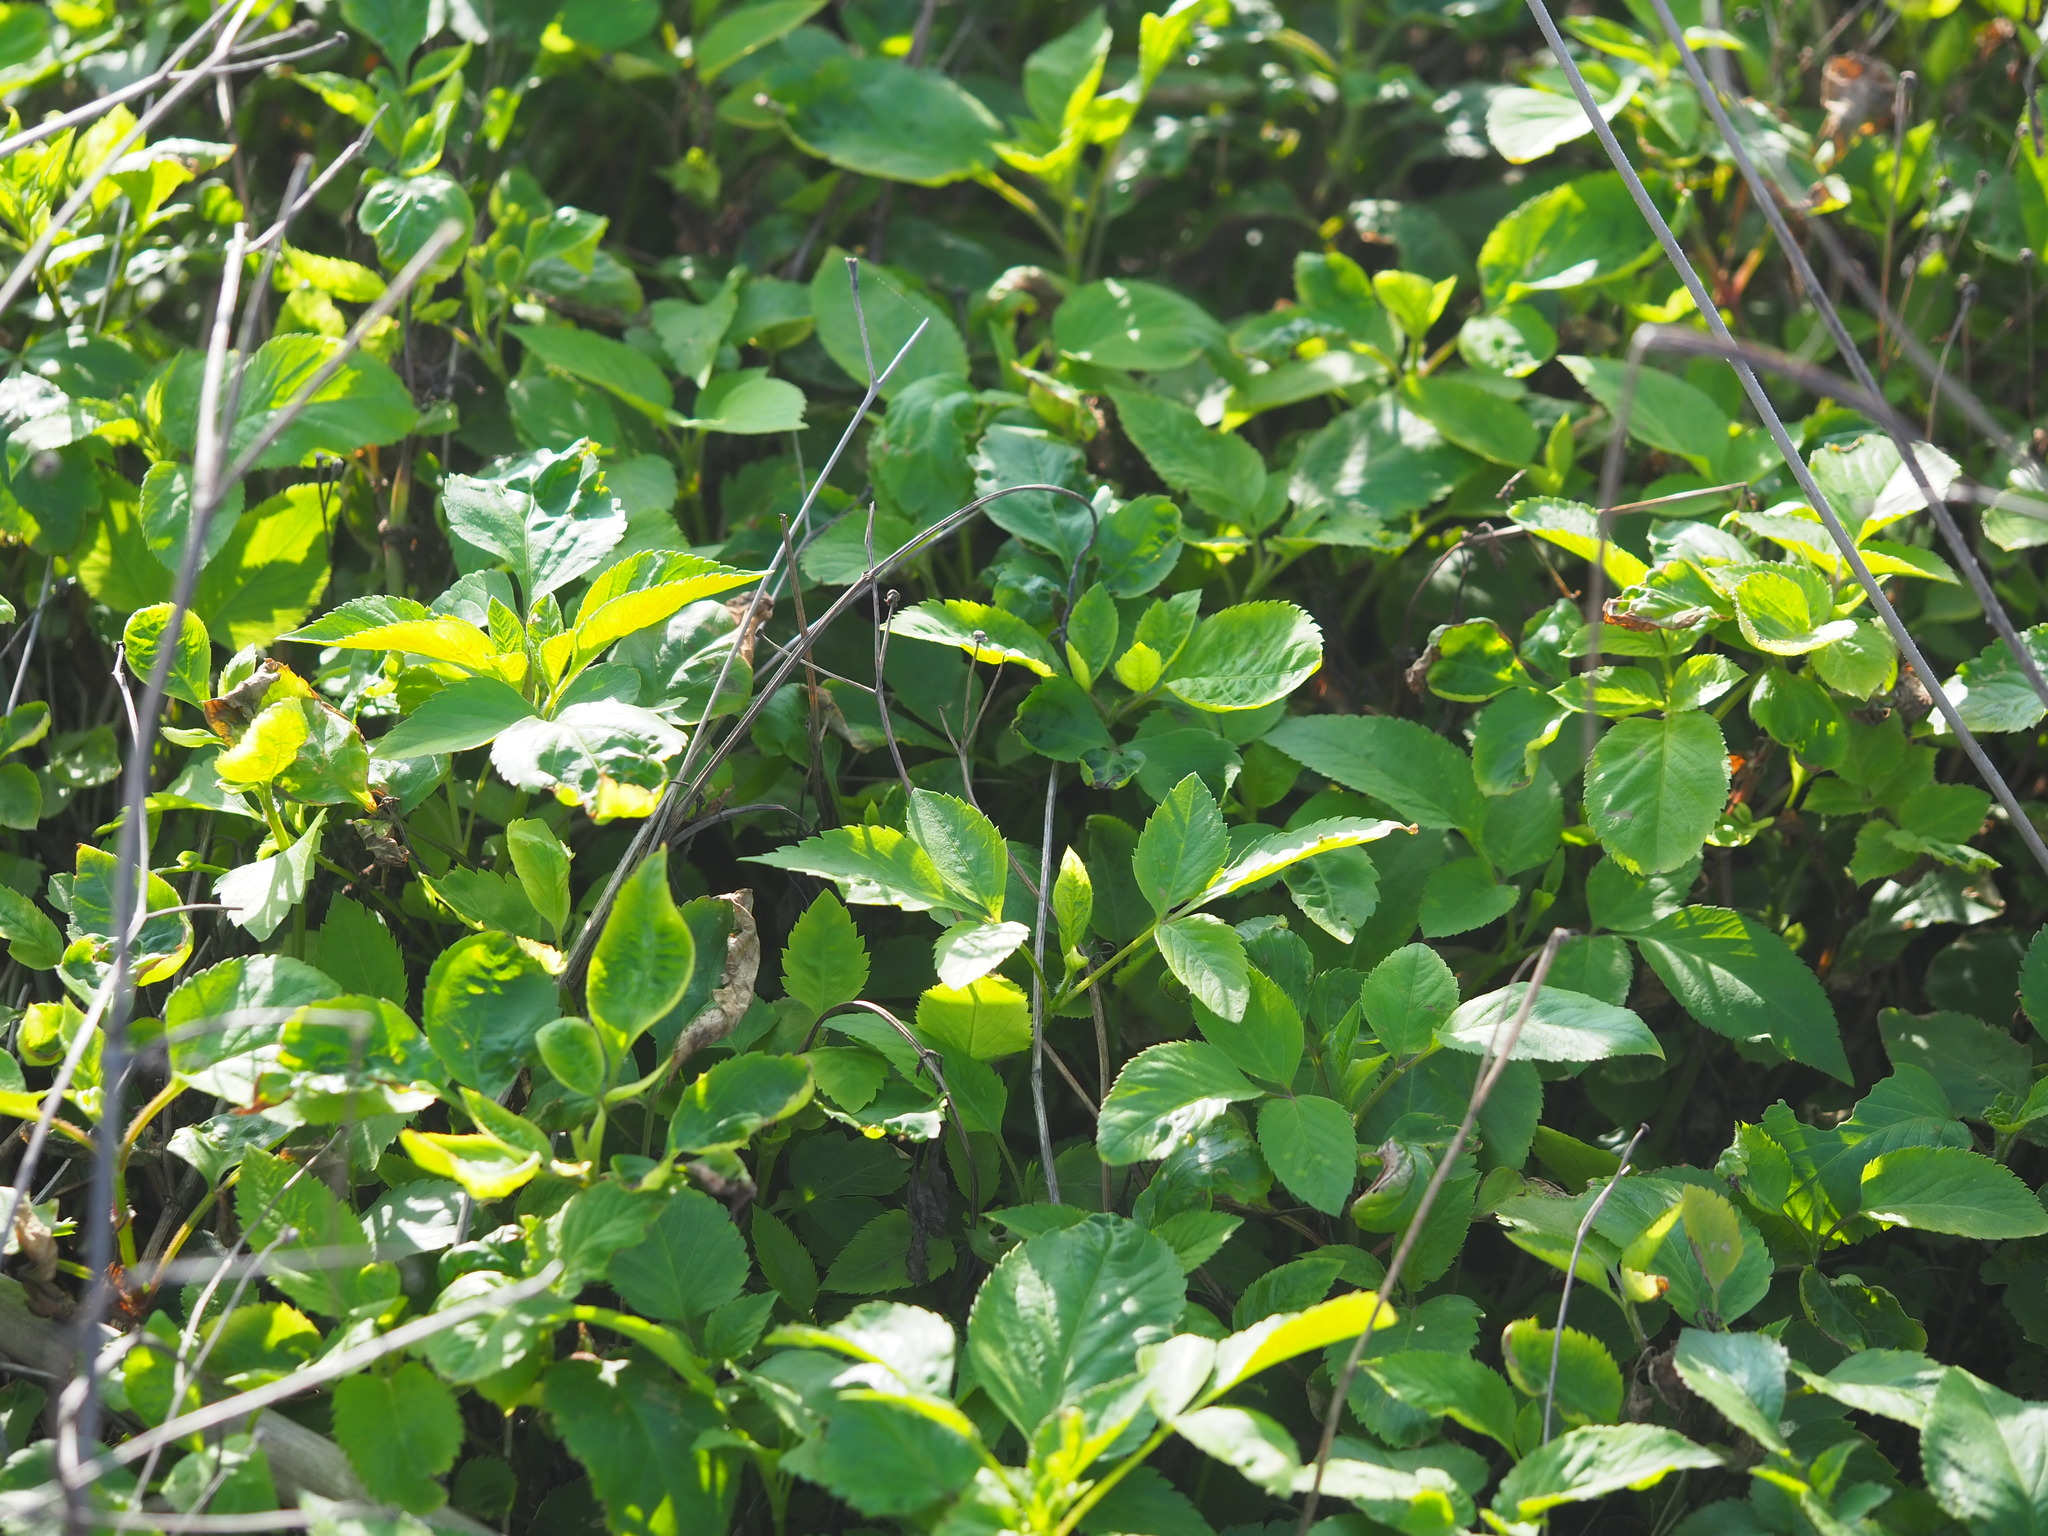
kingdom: Plantae
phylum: Tracheophyta
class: Magnoliopsida
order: Asterales
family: Asteraceae
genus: Bidens
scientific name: Bidens alba
